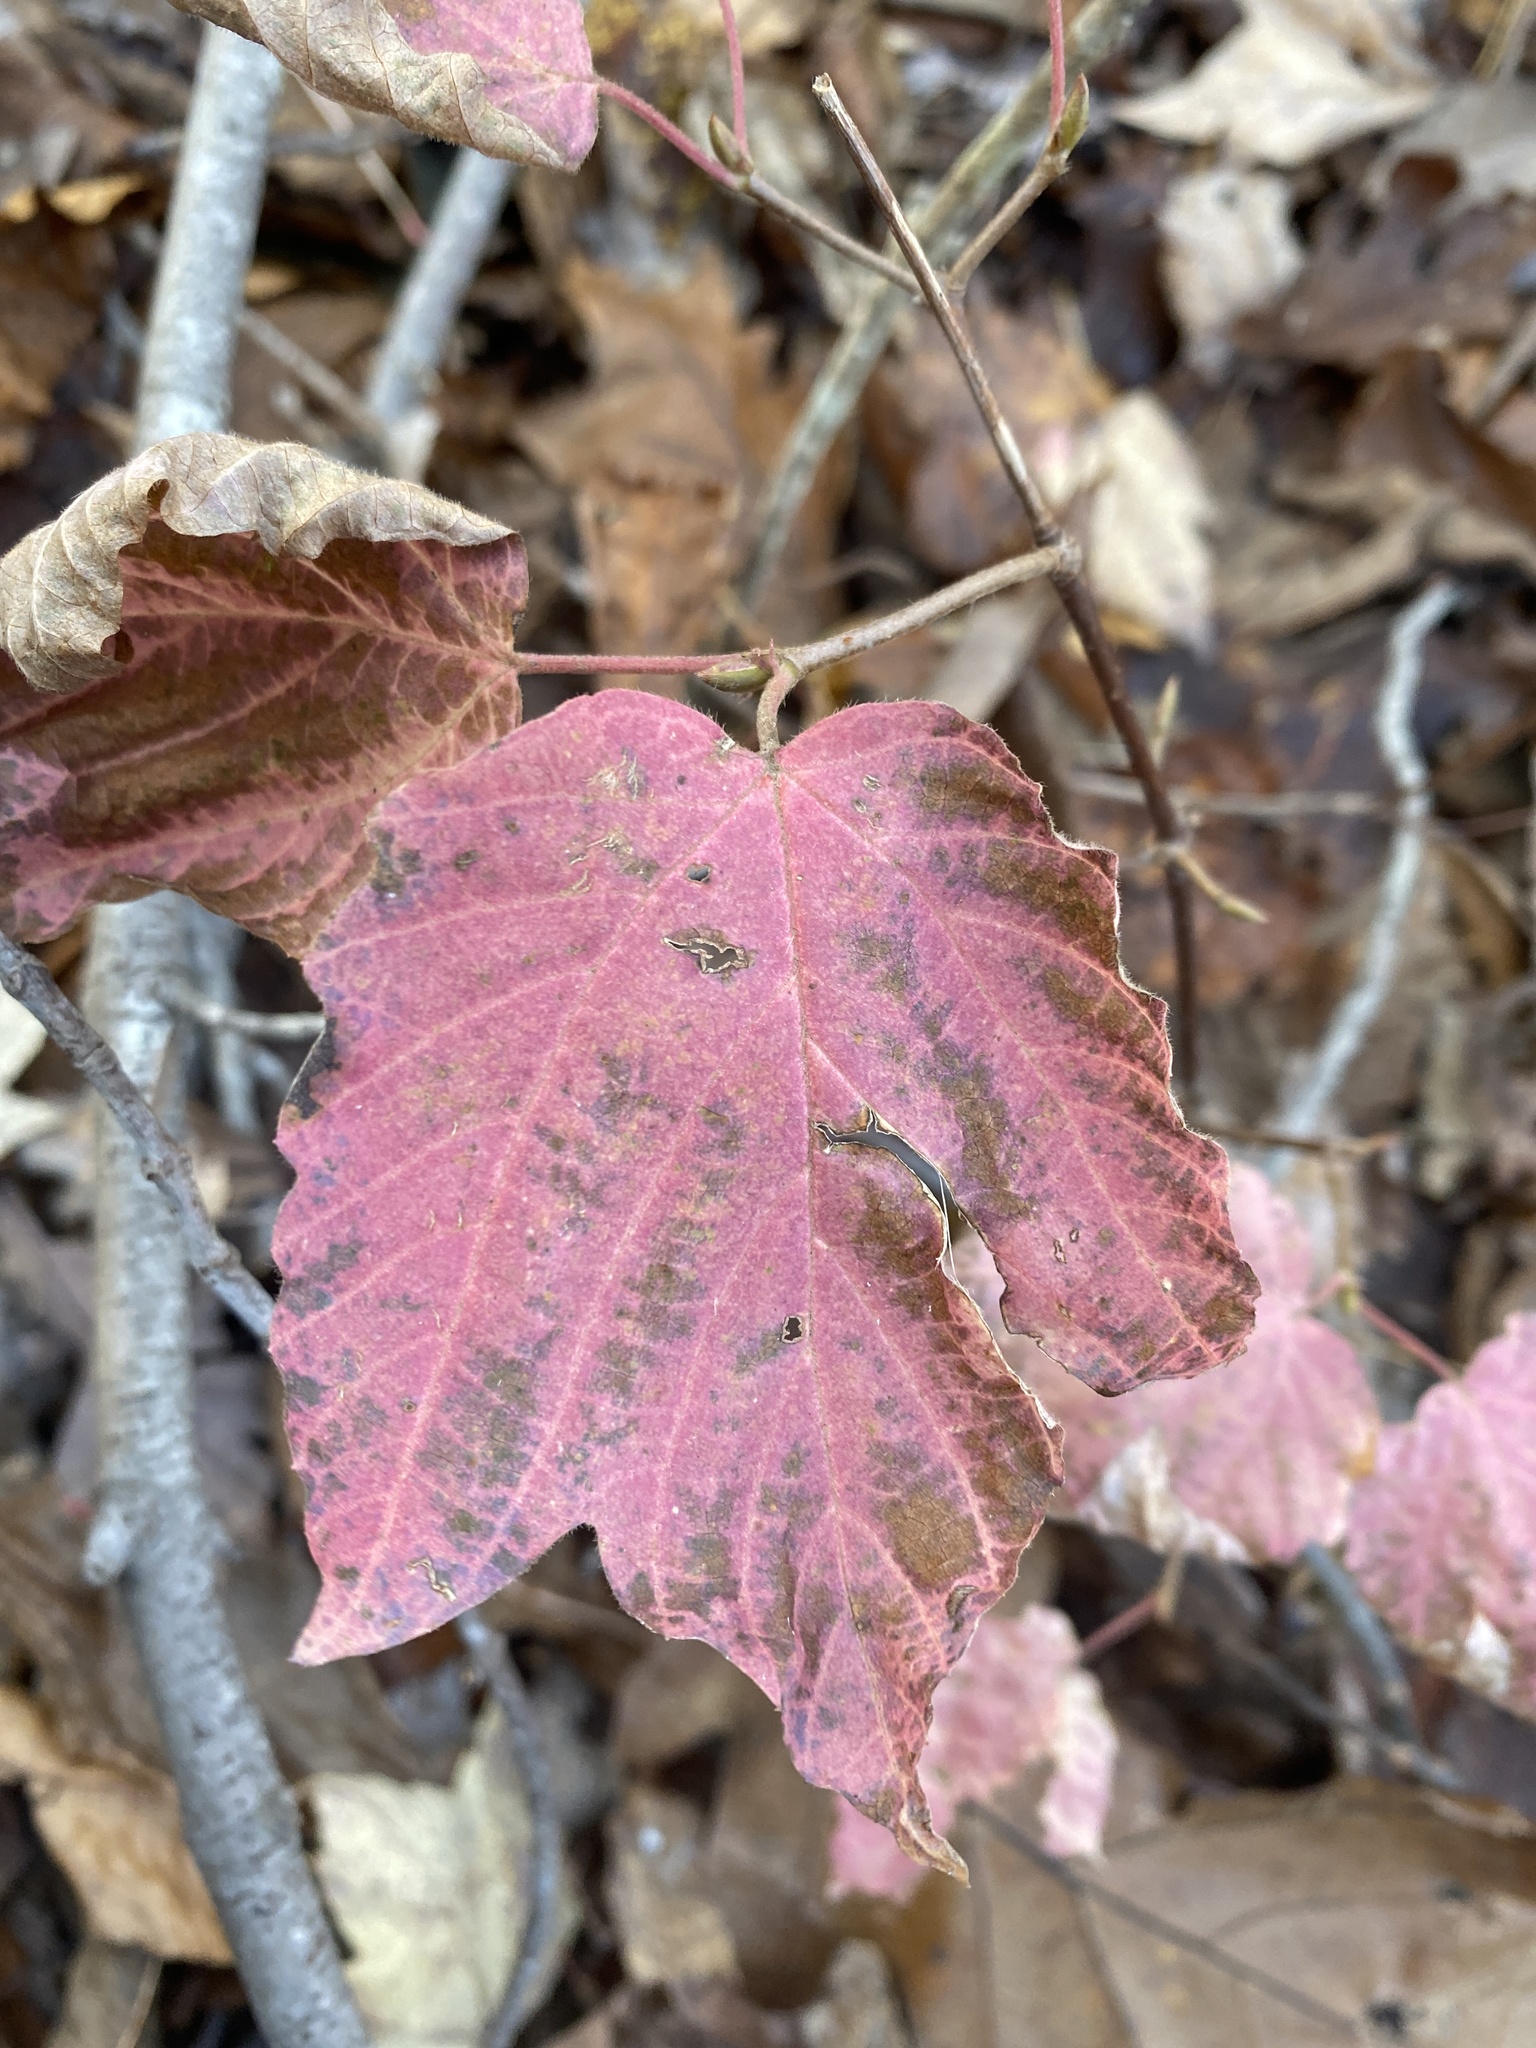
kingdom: Plantae
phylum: Tracheophyta
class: Magnoliopsida
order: Dipsacales
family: Viburnaceae
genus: Viburnum
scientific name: Viburnum acerifolium
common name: Dockmackie
